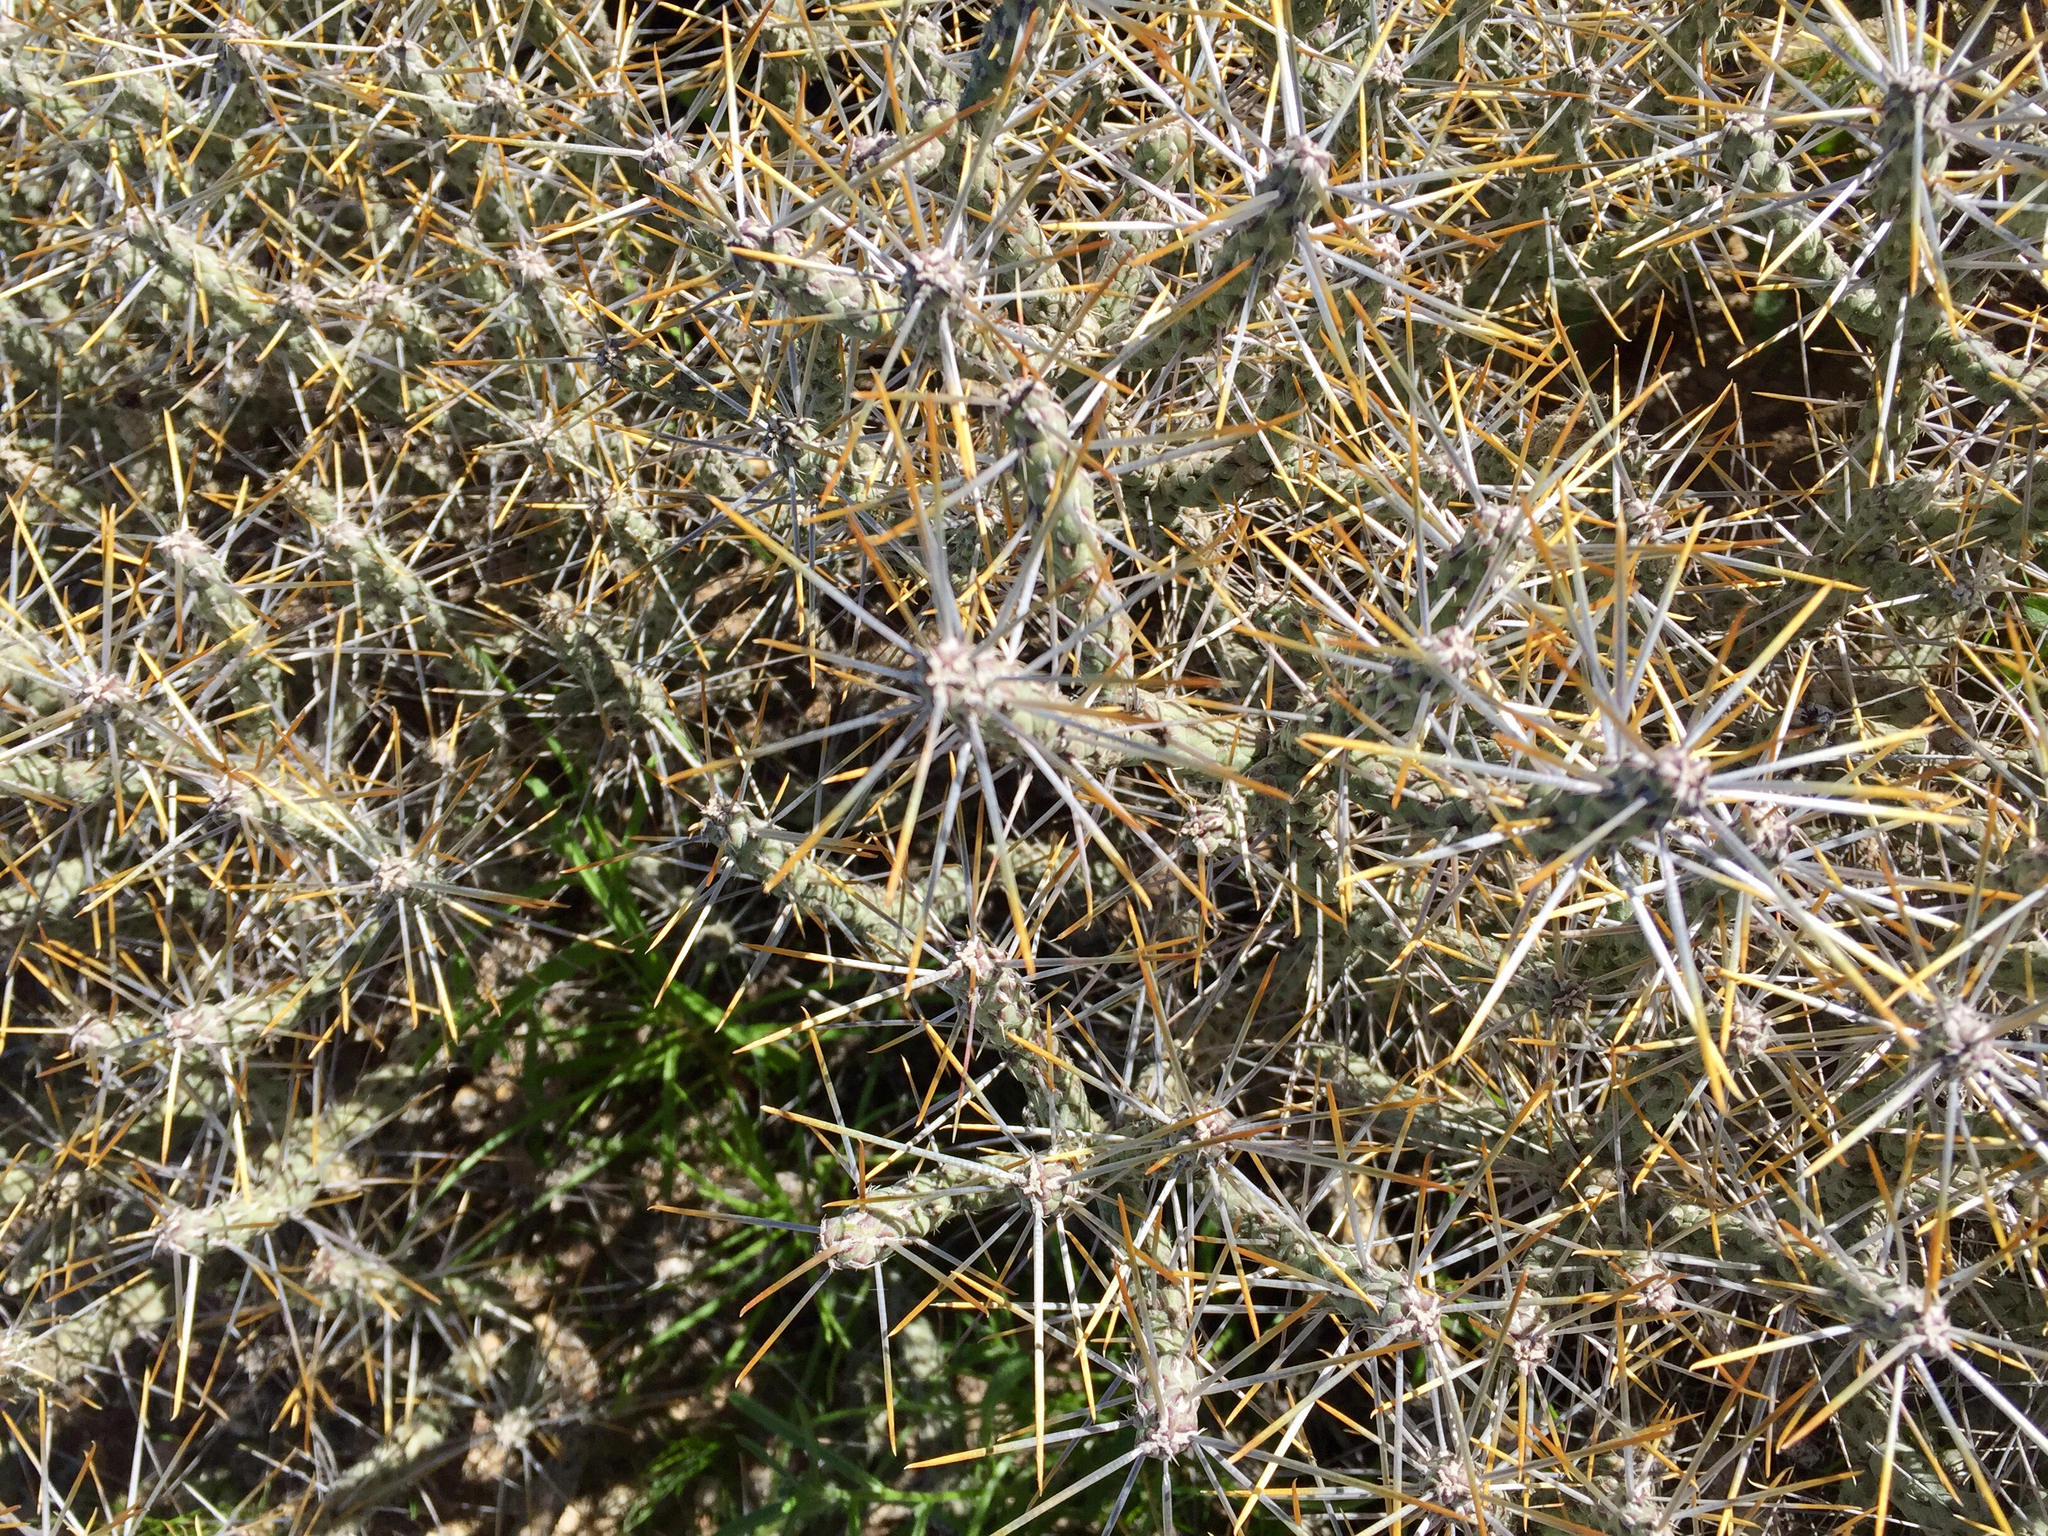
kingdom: Plantae
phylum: Tracheophyta
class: Magnoliopsida
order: Caryophyllales
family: Cactaceae
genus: Cylindropuntia
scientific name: Cylindropuntia ramosissima
